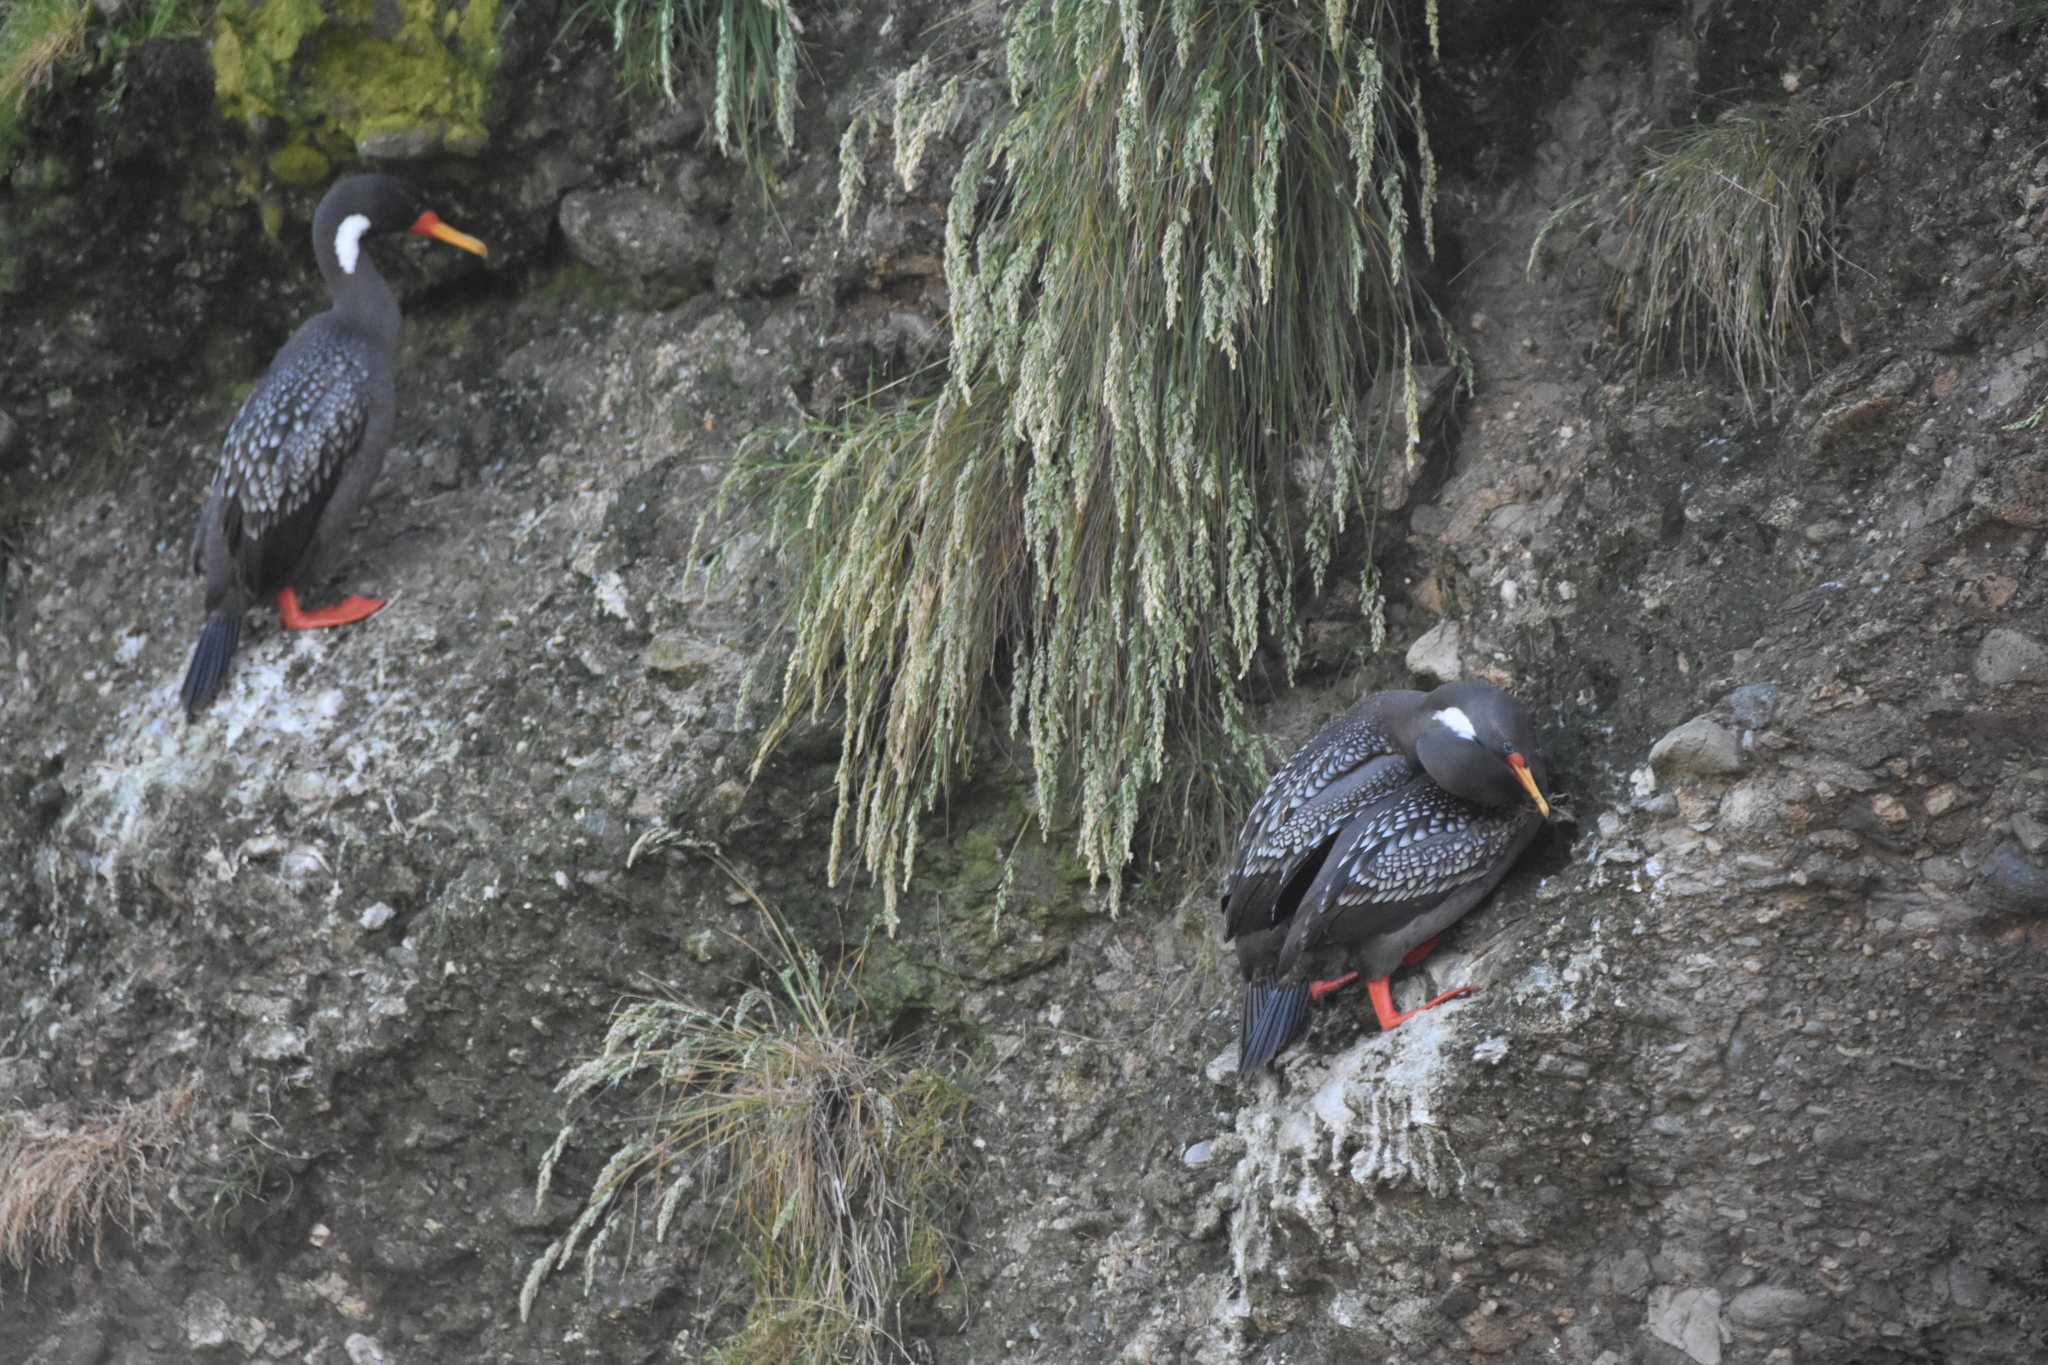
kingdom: Animalia
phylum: Chordata
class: Aves
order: Suliformes
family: Phalacrocoracidae
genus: Phalacrocorax
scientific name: Phalacrocorax gaimardi
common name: Red-legged cormorant
